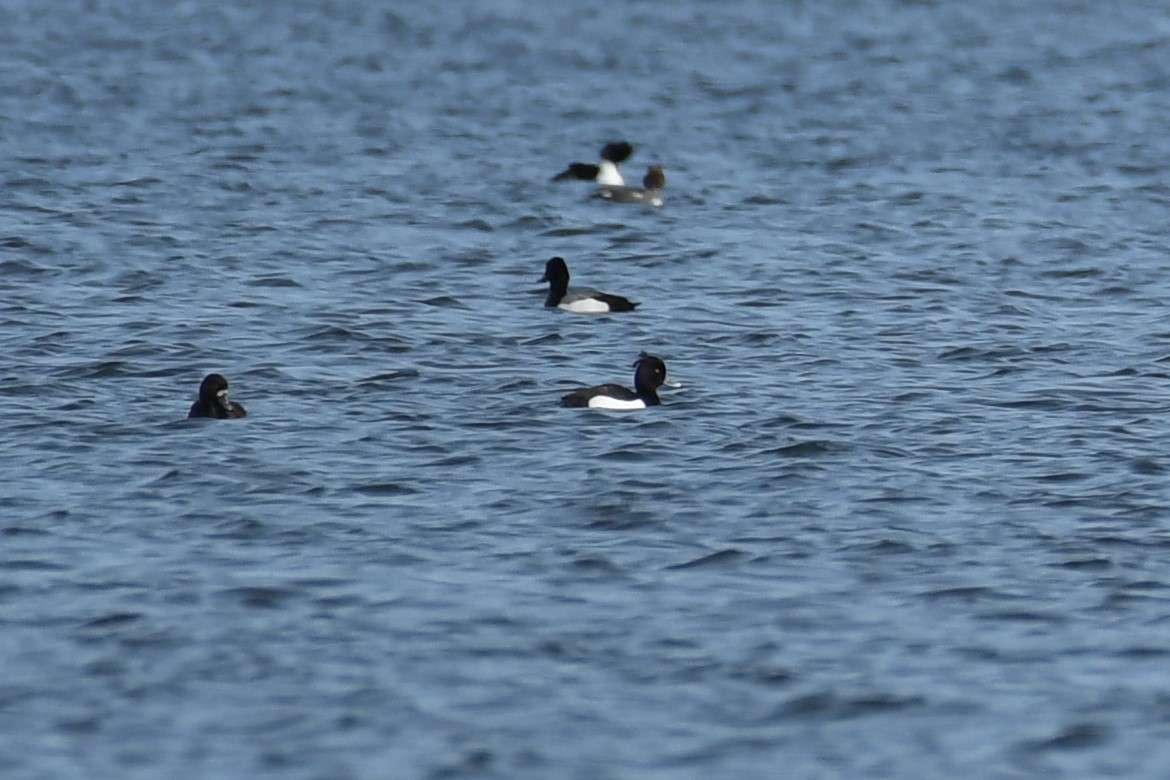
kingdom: Animalia
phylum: Chordata
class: Aves
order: Anseriformes
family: Anatidae
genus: Aythya
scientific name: Aythya fuligula
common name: Tufted duck
